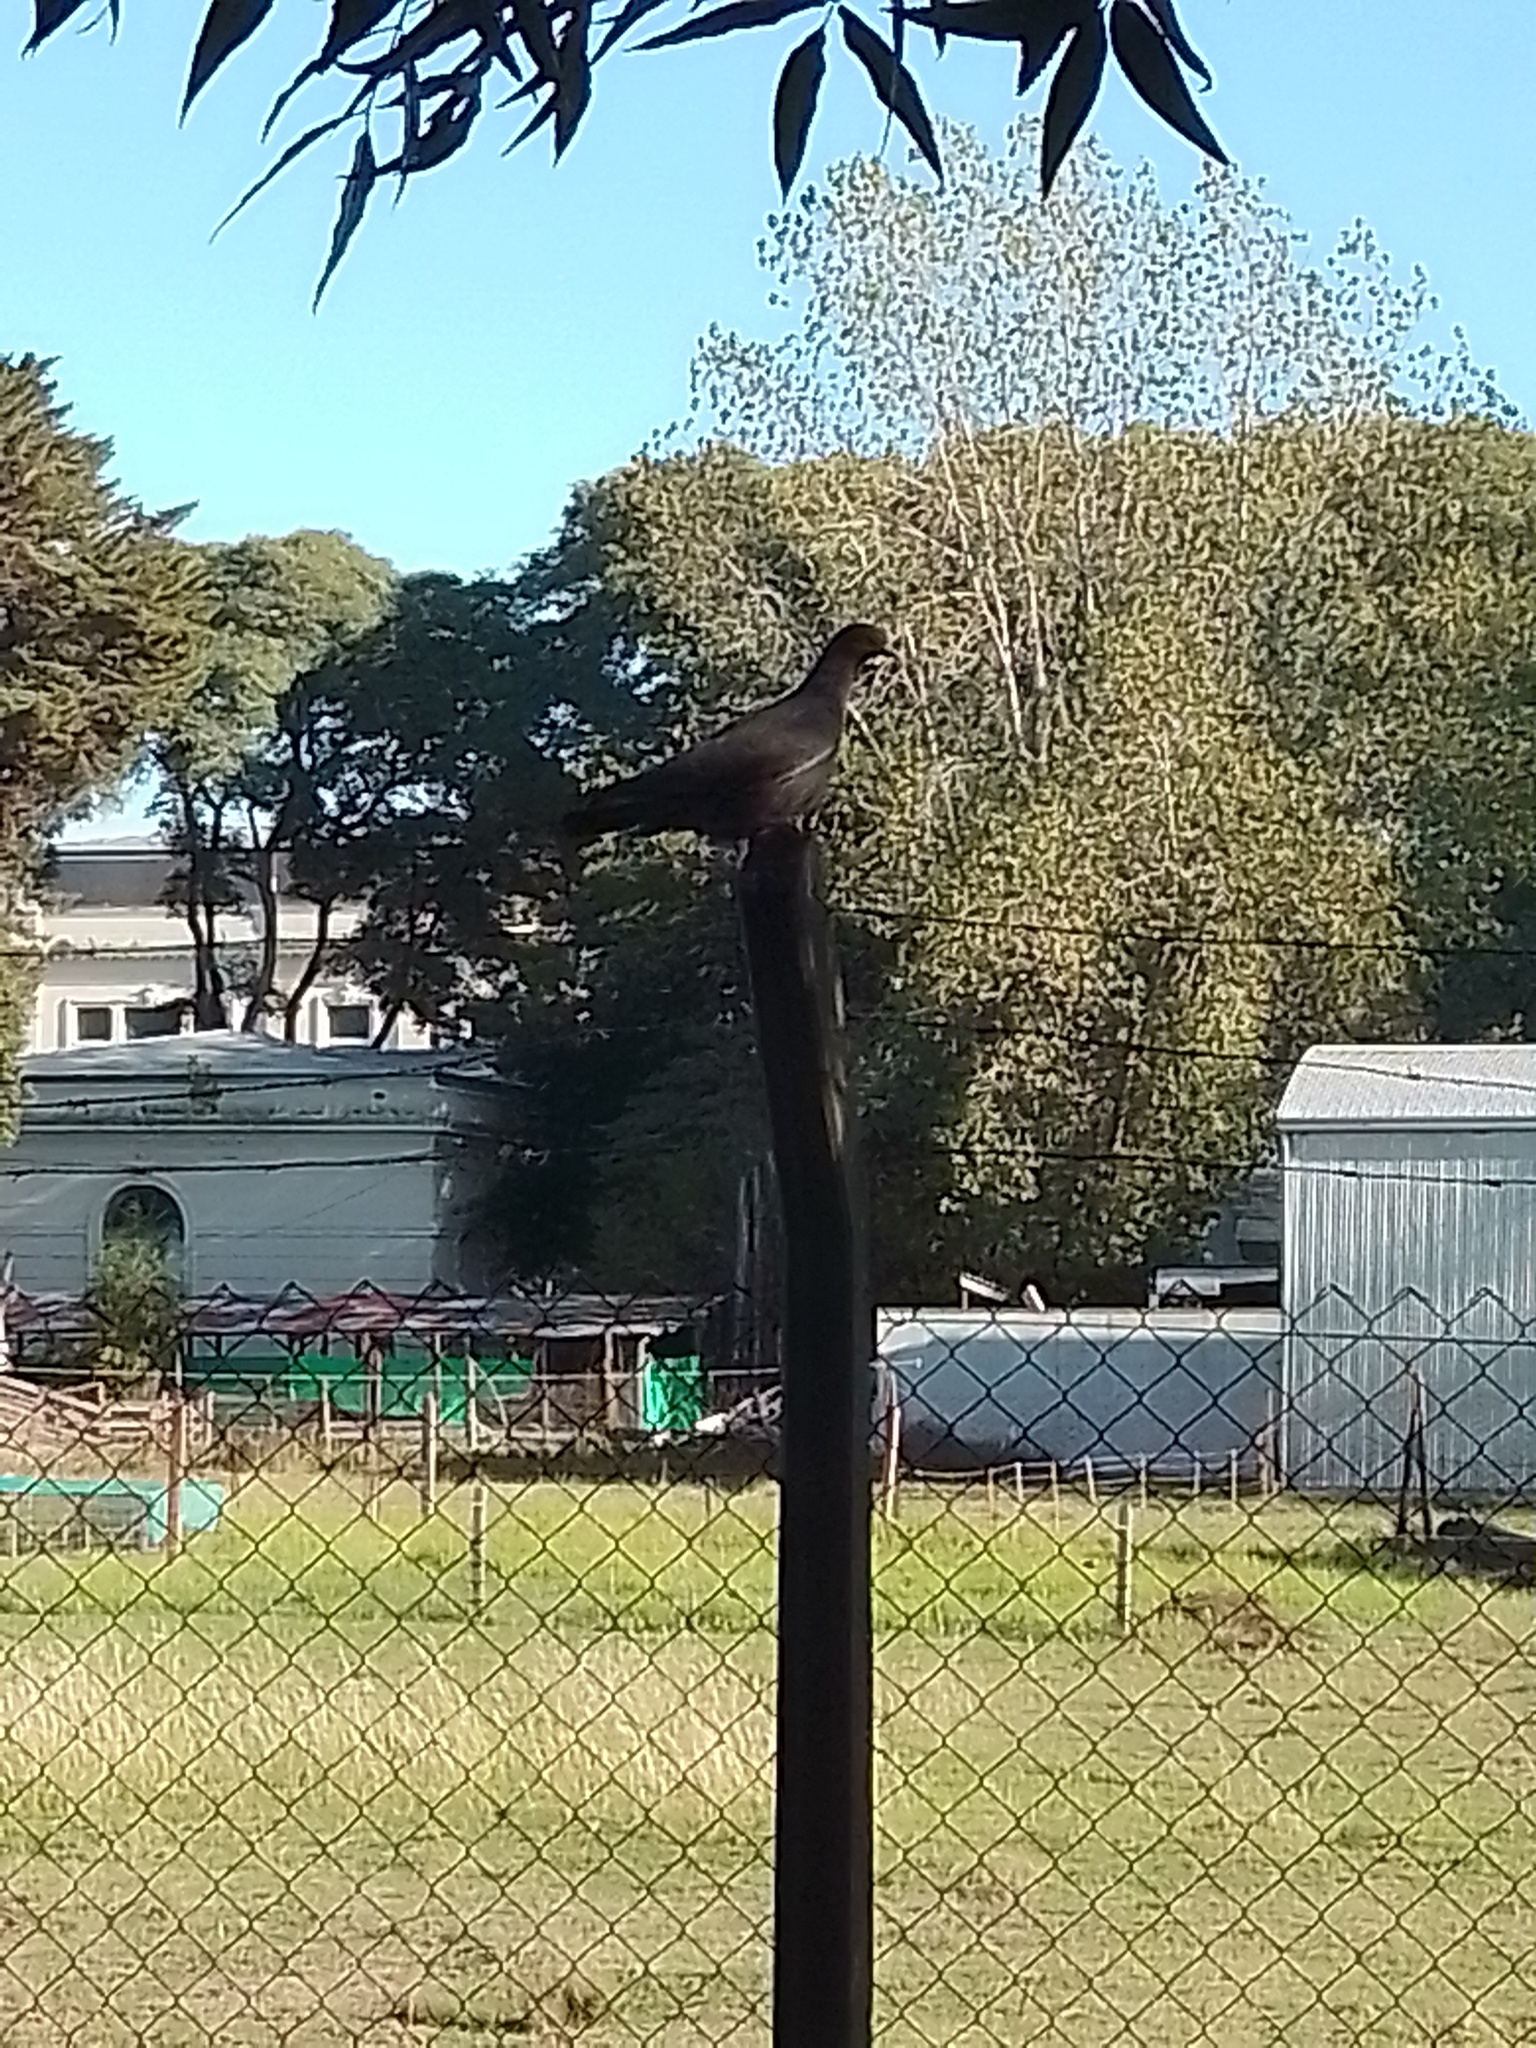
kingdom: Animalia
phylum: Chordata
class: Aves
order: Columbiformes
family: Columbidae
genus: Patagioenas
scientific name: Patagioenas picazuro
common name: Picazuro pigeon
